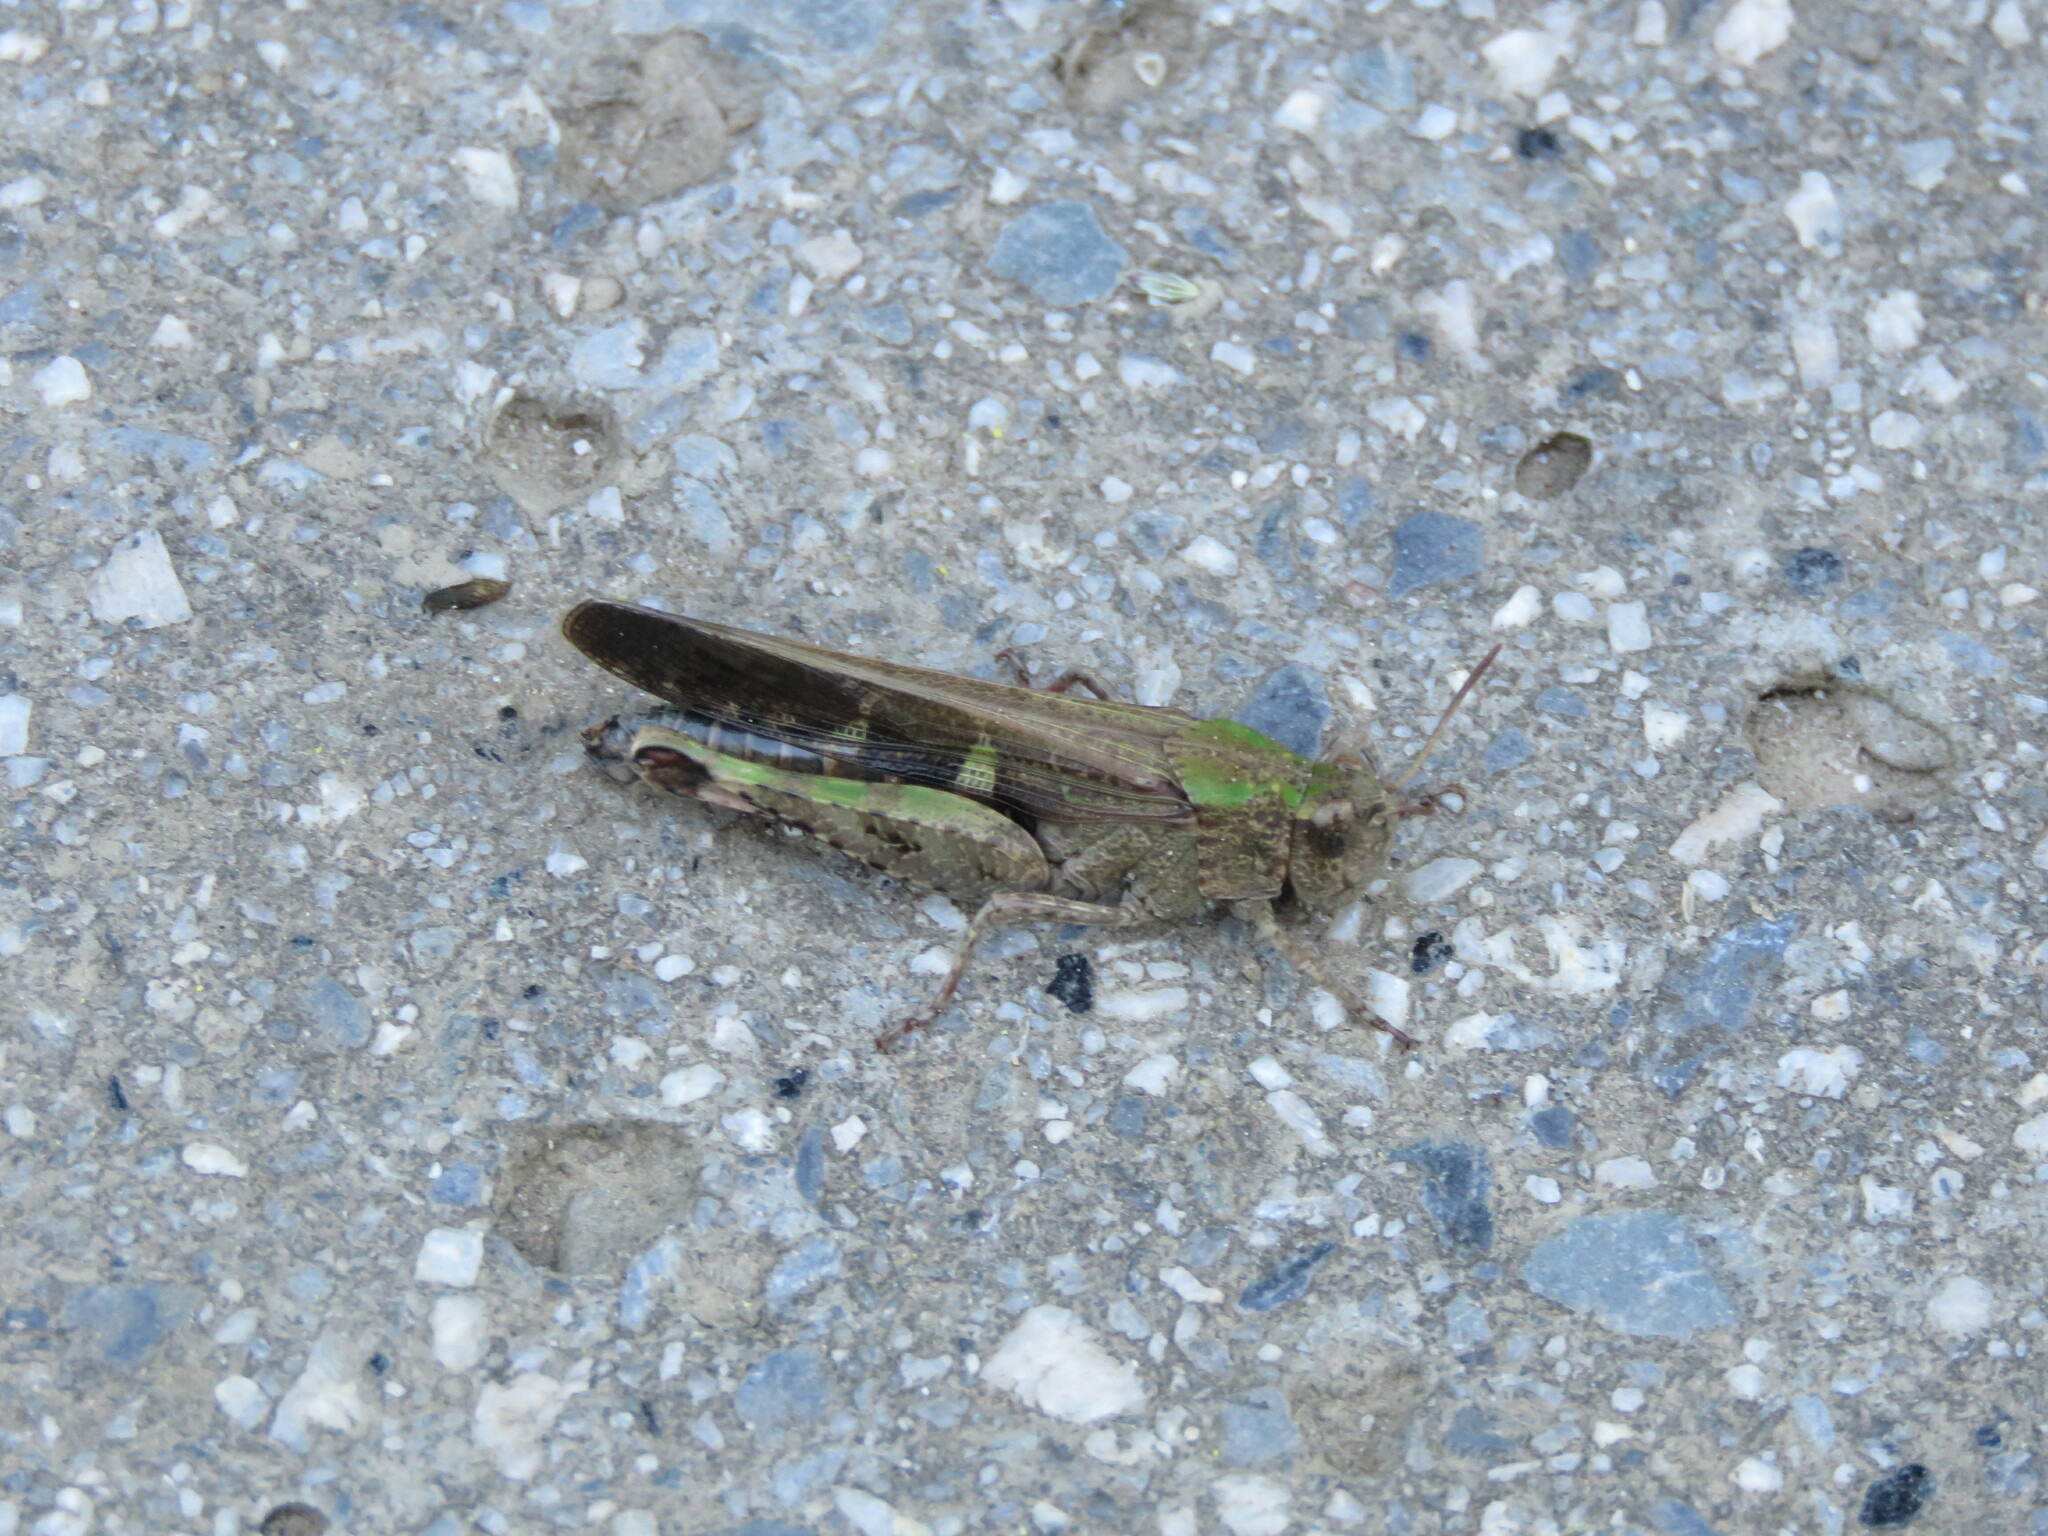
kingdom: Animalia
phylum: Arthropoda
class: Insecta
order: Orthoptera
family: Acrididae
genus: Aiolopus
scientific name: Aiolopus strepens
